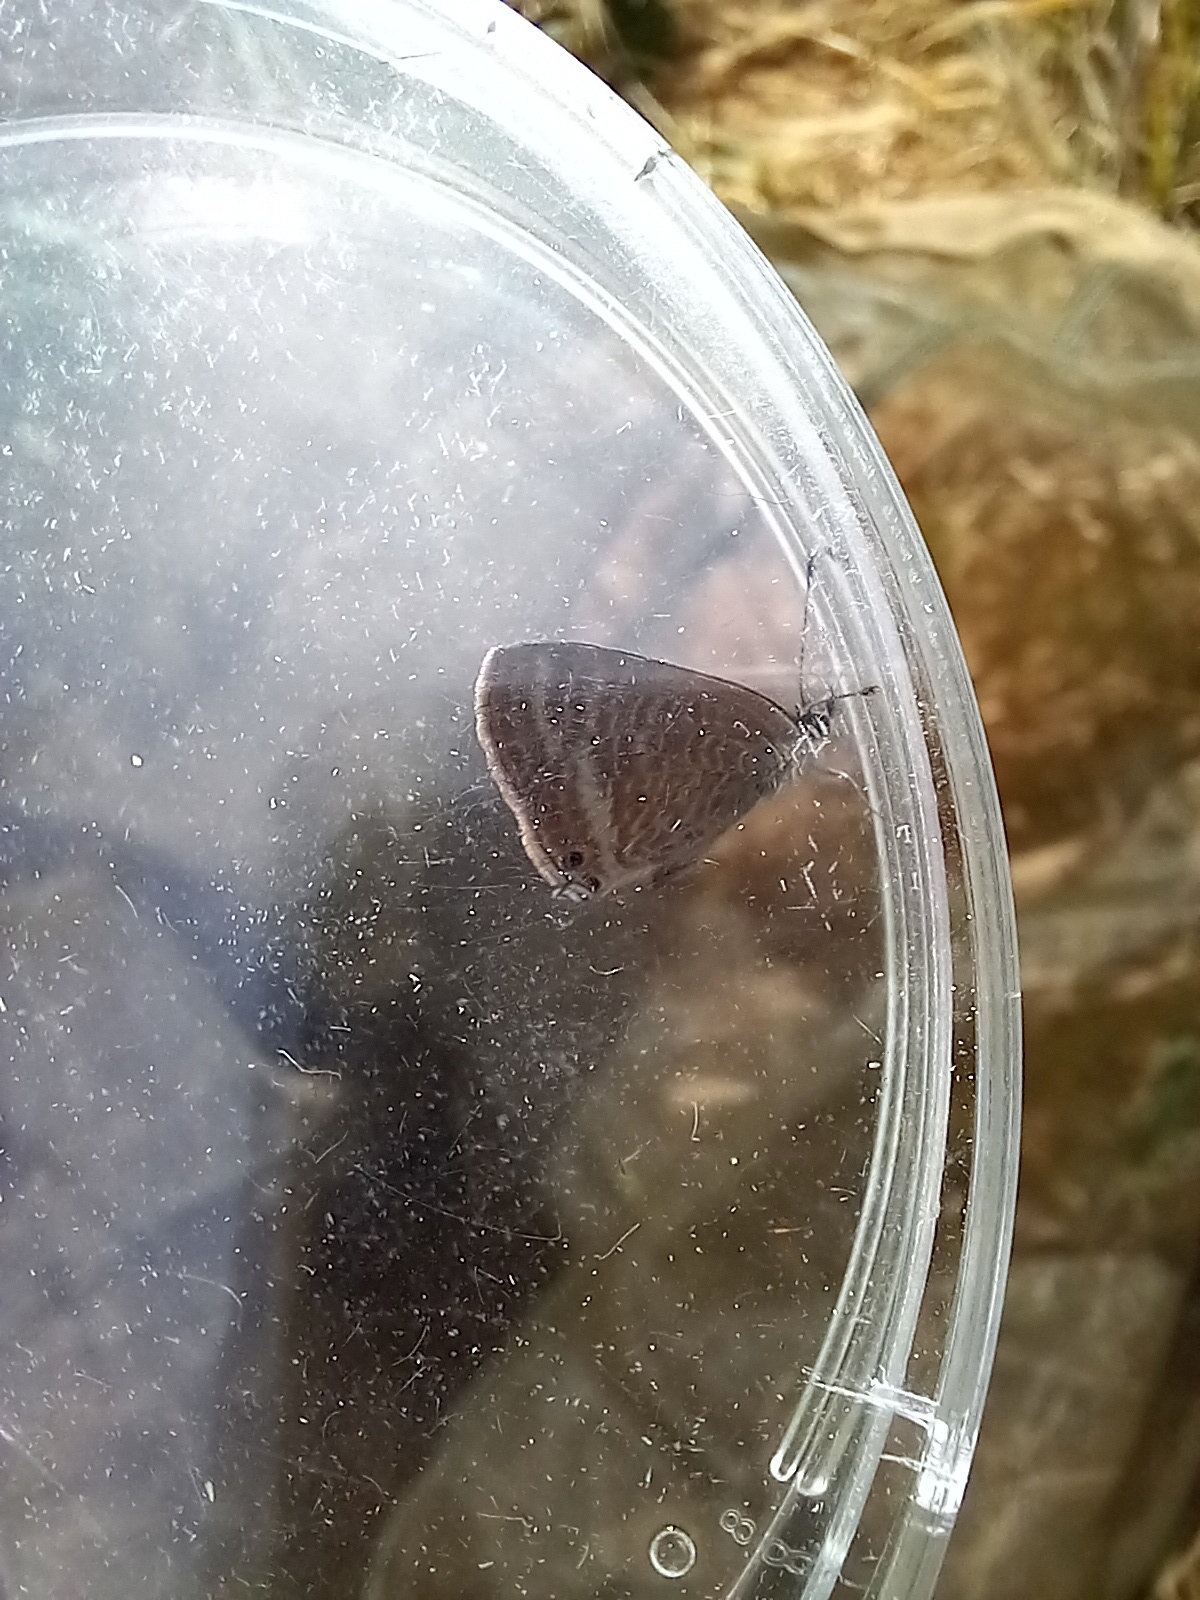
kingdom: Animalia
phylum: Arthropoda
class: Insecta
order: Lepidoptera
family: Lycaenidae
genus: Lampides
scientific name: Lampides boeticus
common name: Long-tailed blue
